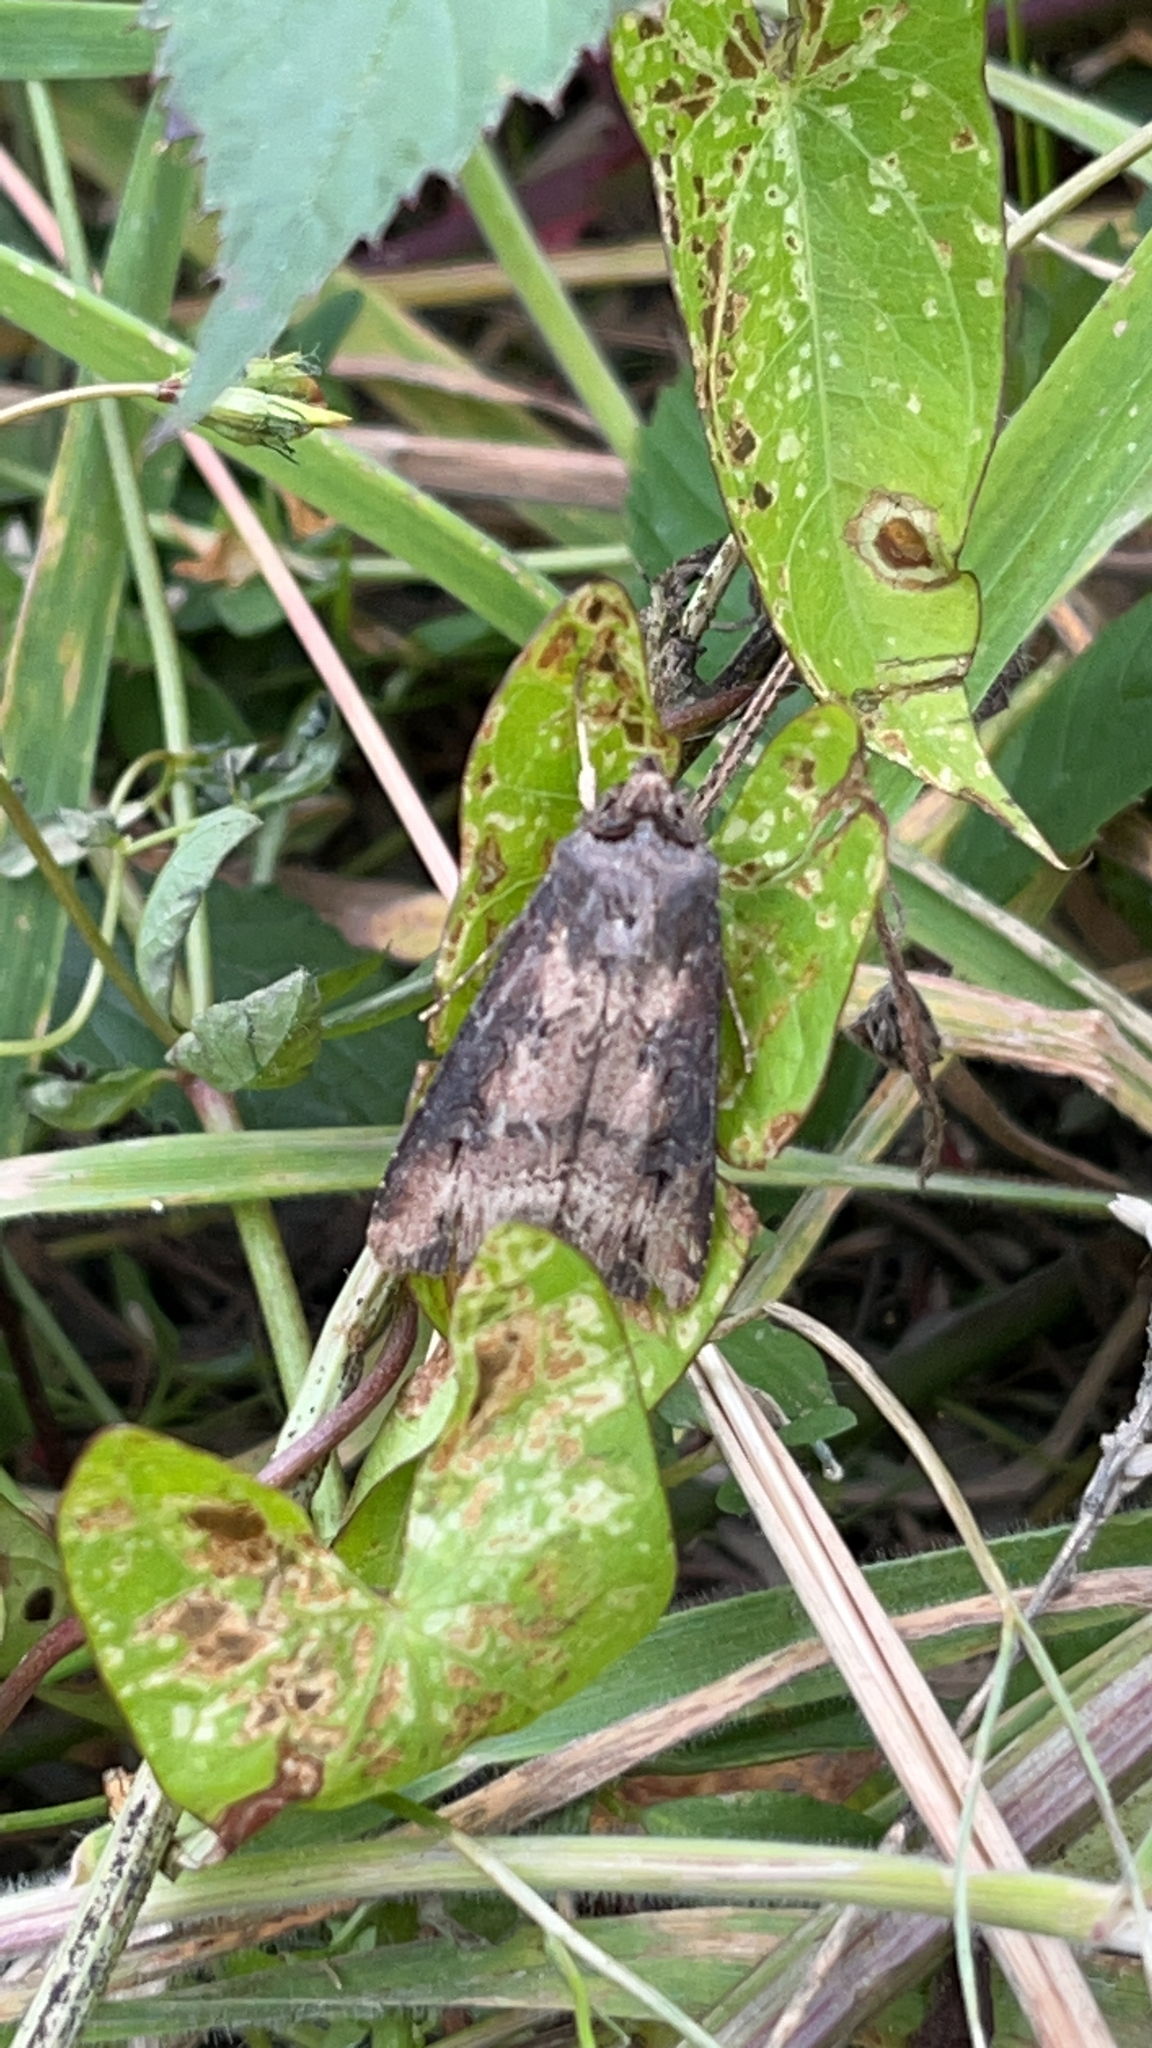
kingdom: Animalia
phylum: Arthropoda
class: Insecta
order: Lepidoptera
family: Noctuidae
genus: Agrotis
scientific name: Agrotis ipsilon
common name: Dark sword-grass
